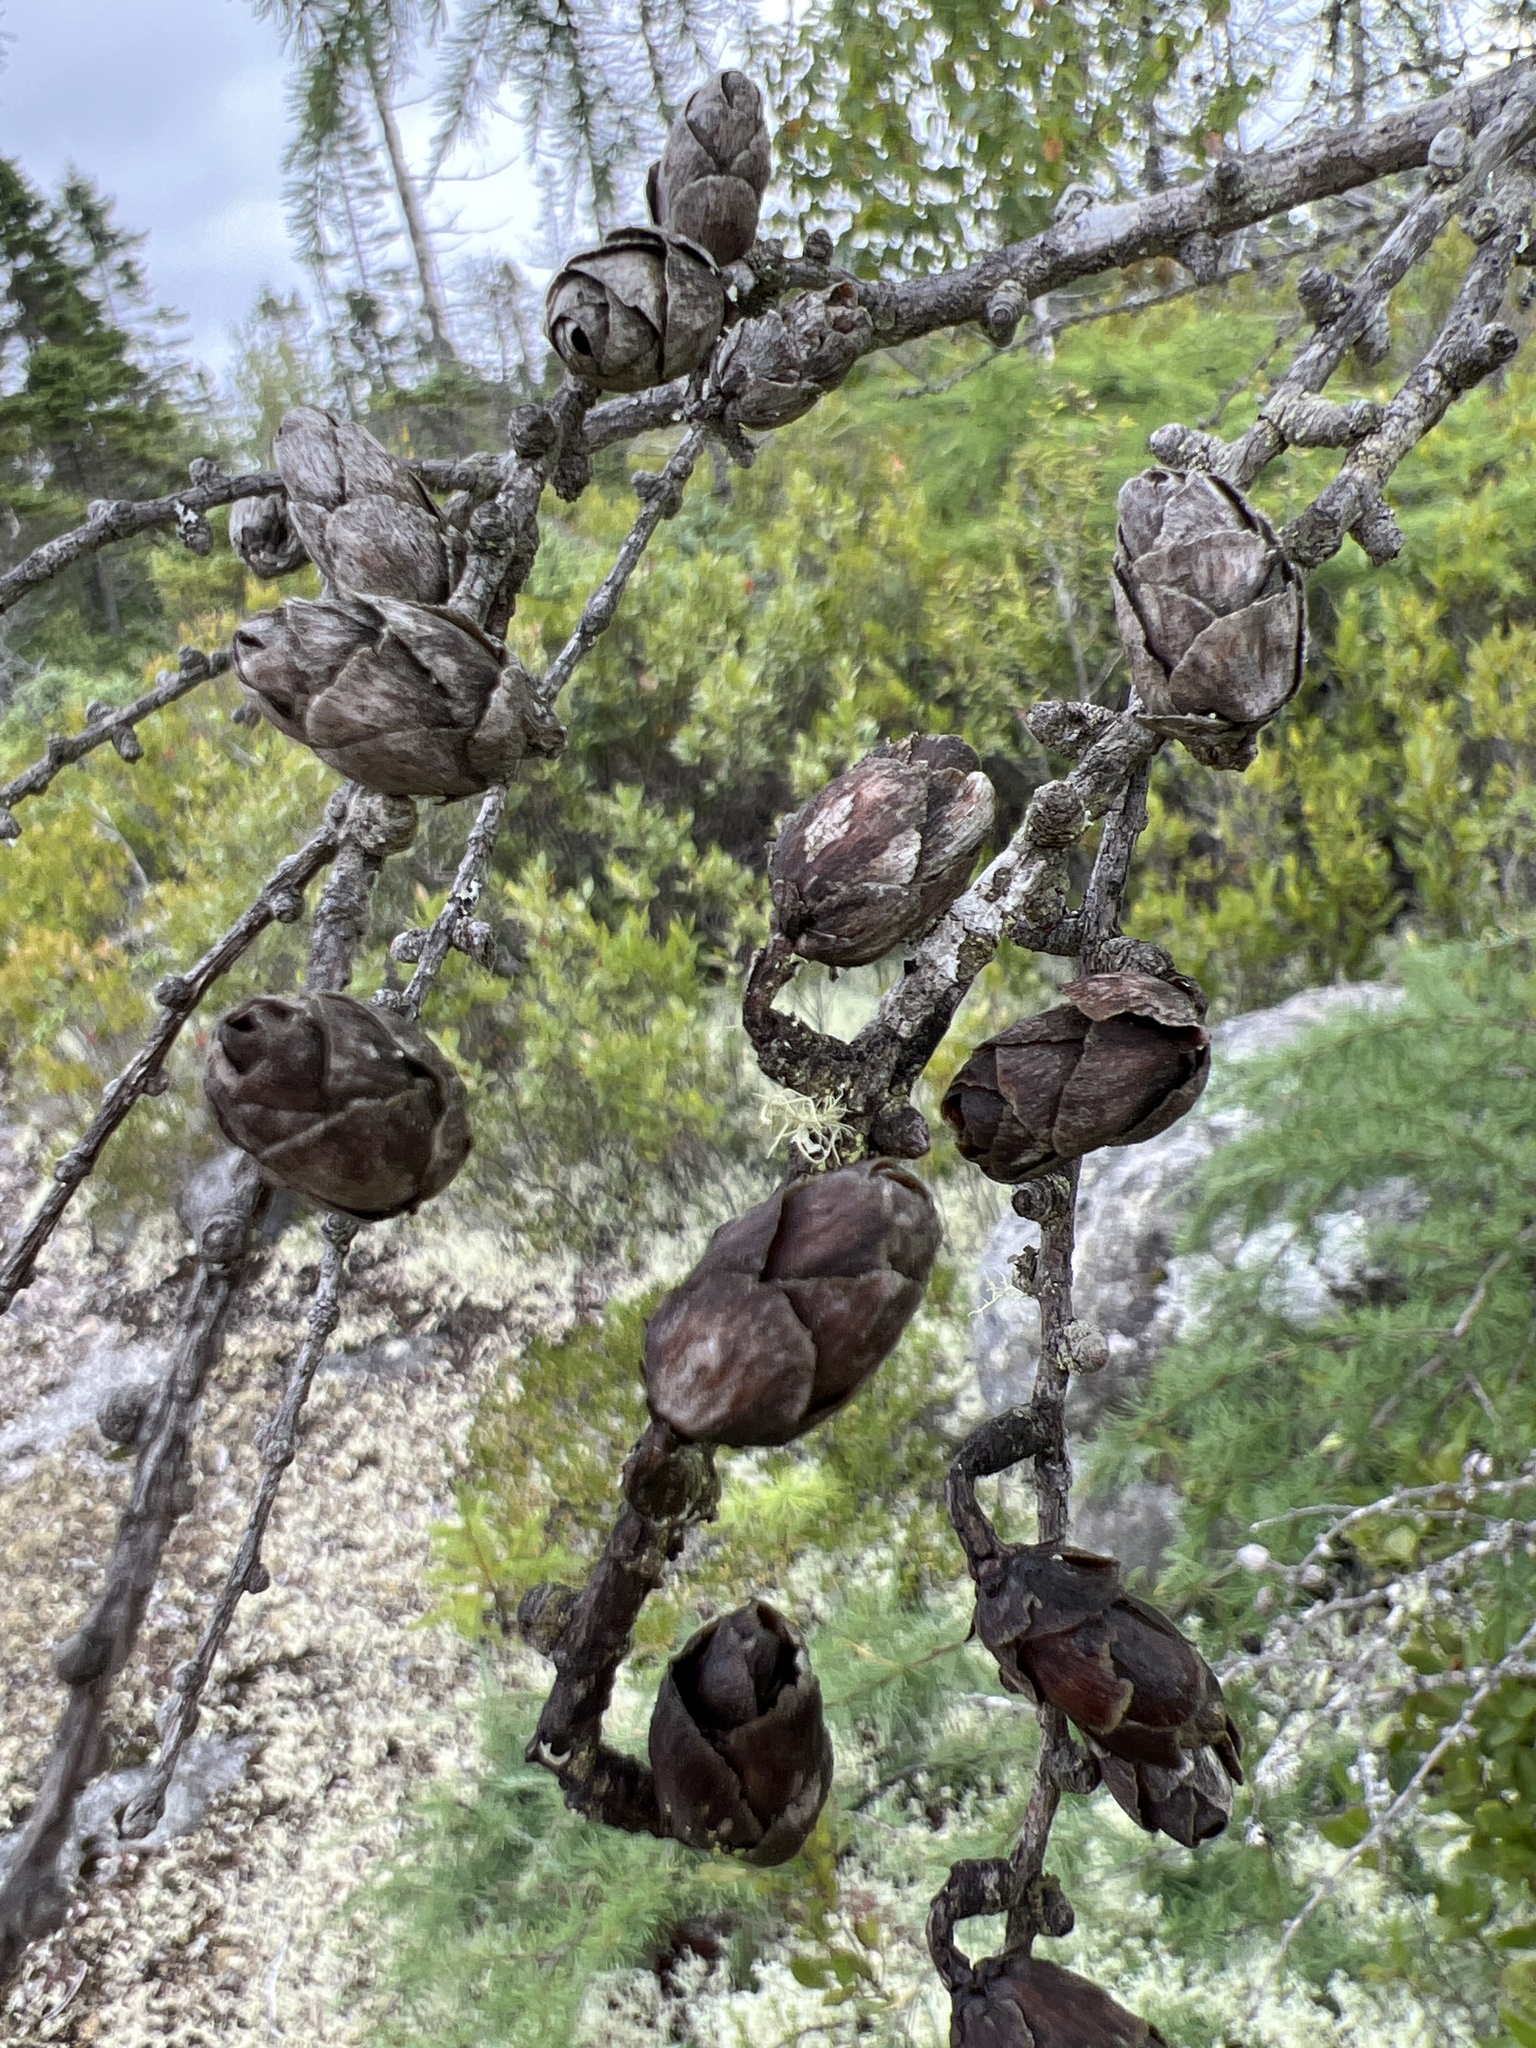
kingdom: Plantae
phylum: Tracheophyta
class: Pinopsida
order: Pinales
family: Pinaceae
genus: Larix
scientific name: Larix laricina
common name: American larch
